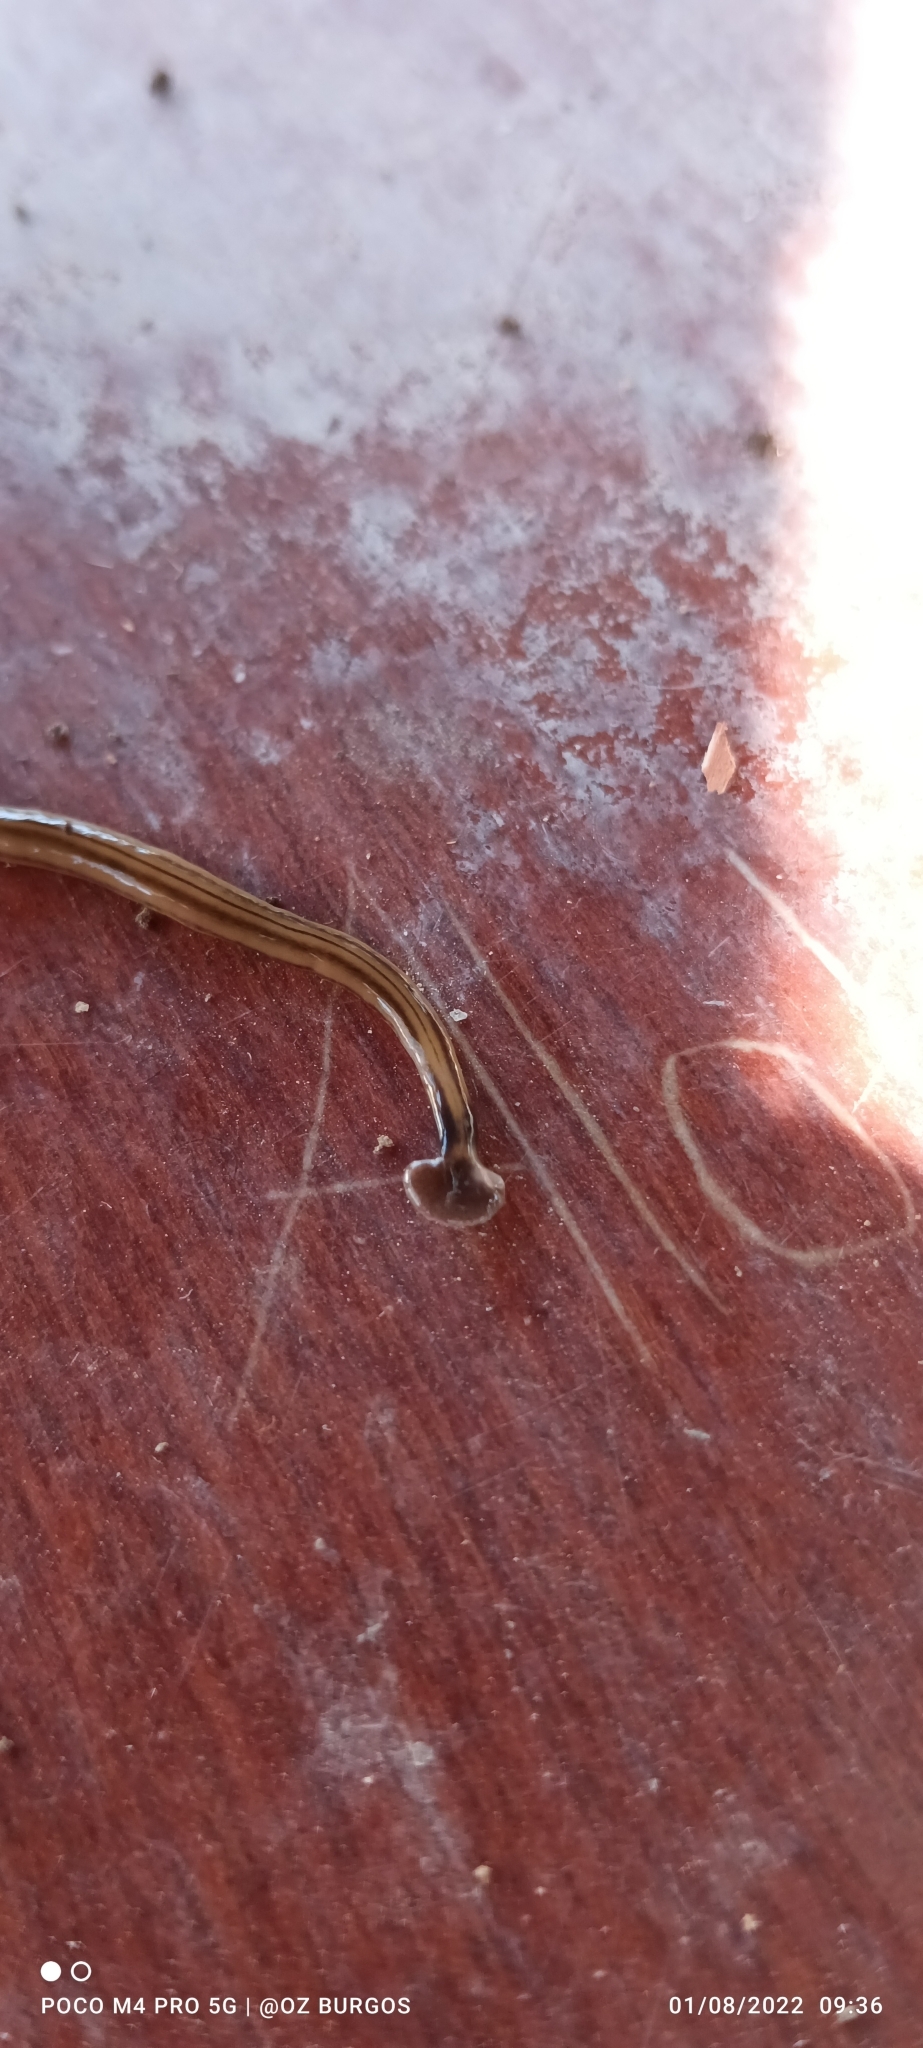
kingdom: Animalia
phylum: Platyhelminthes
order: Tricladida
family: Geoplanidae
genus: Bipalium
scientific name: Bipalium kewense
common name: Hammerhead flatworm
